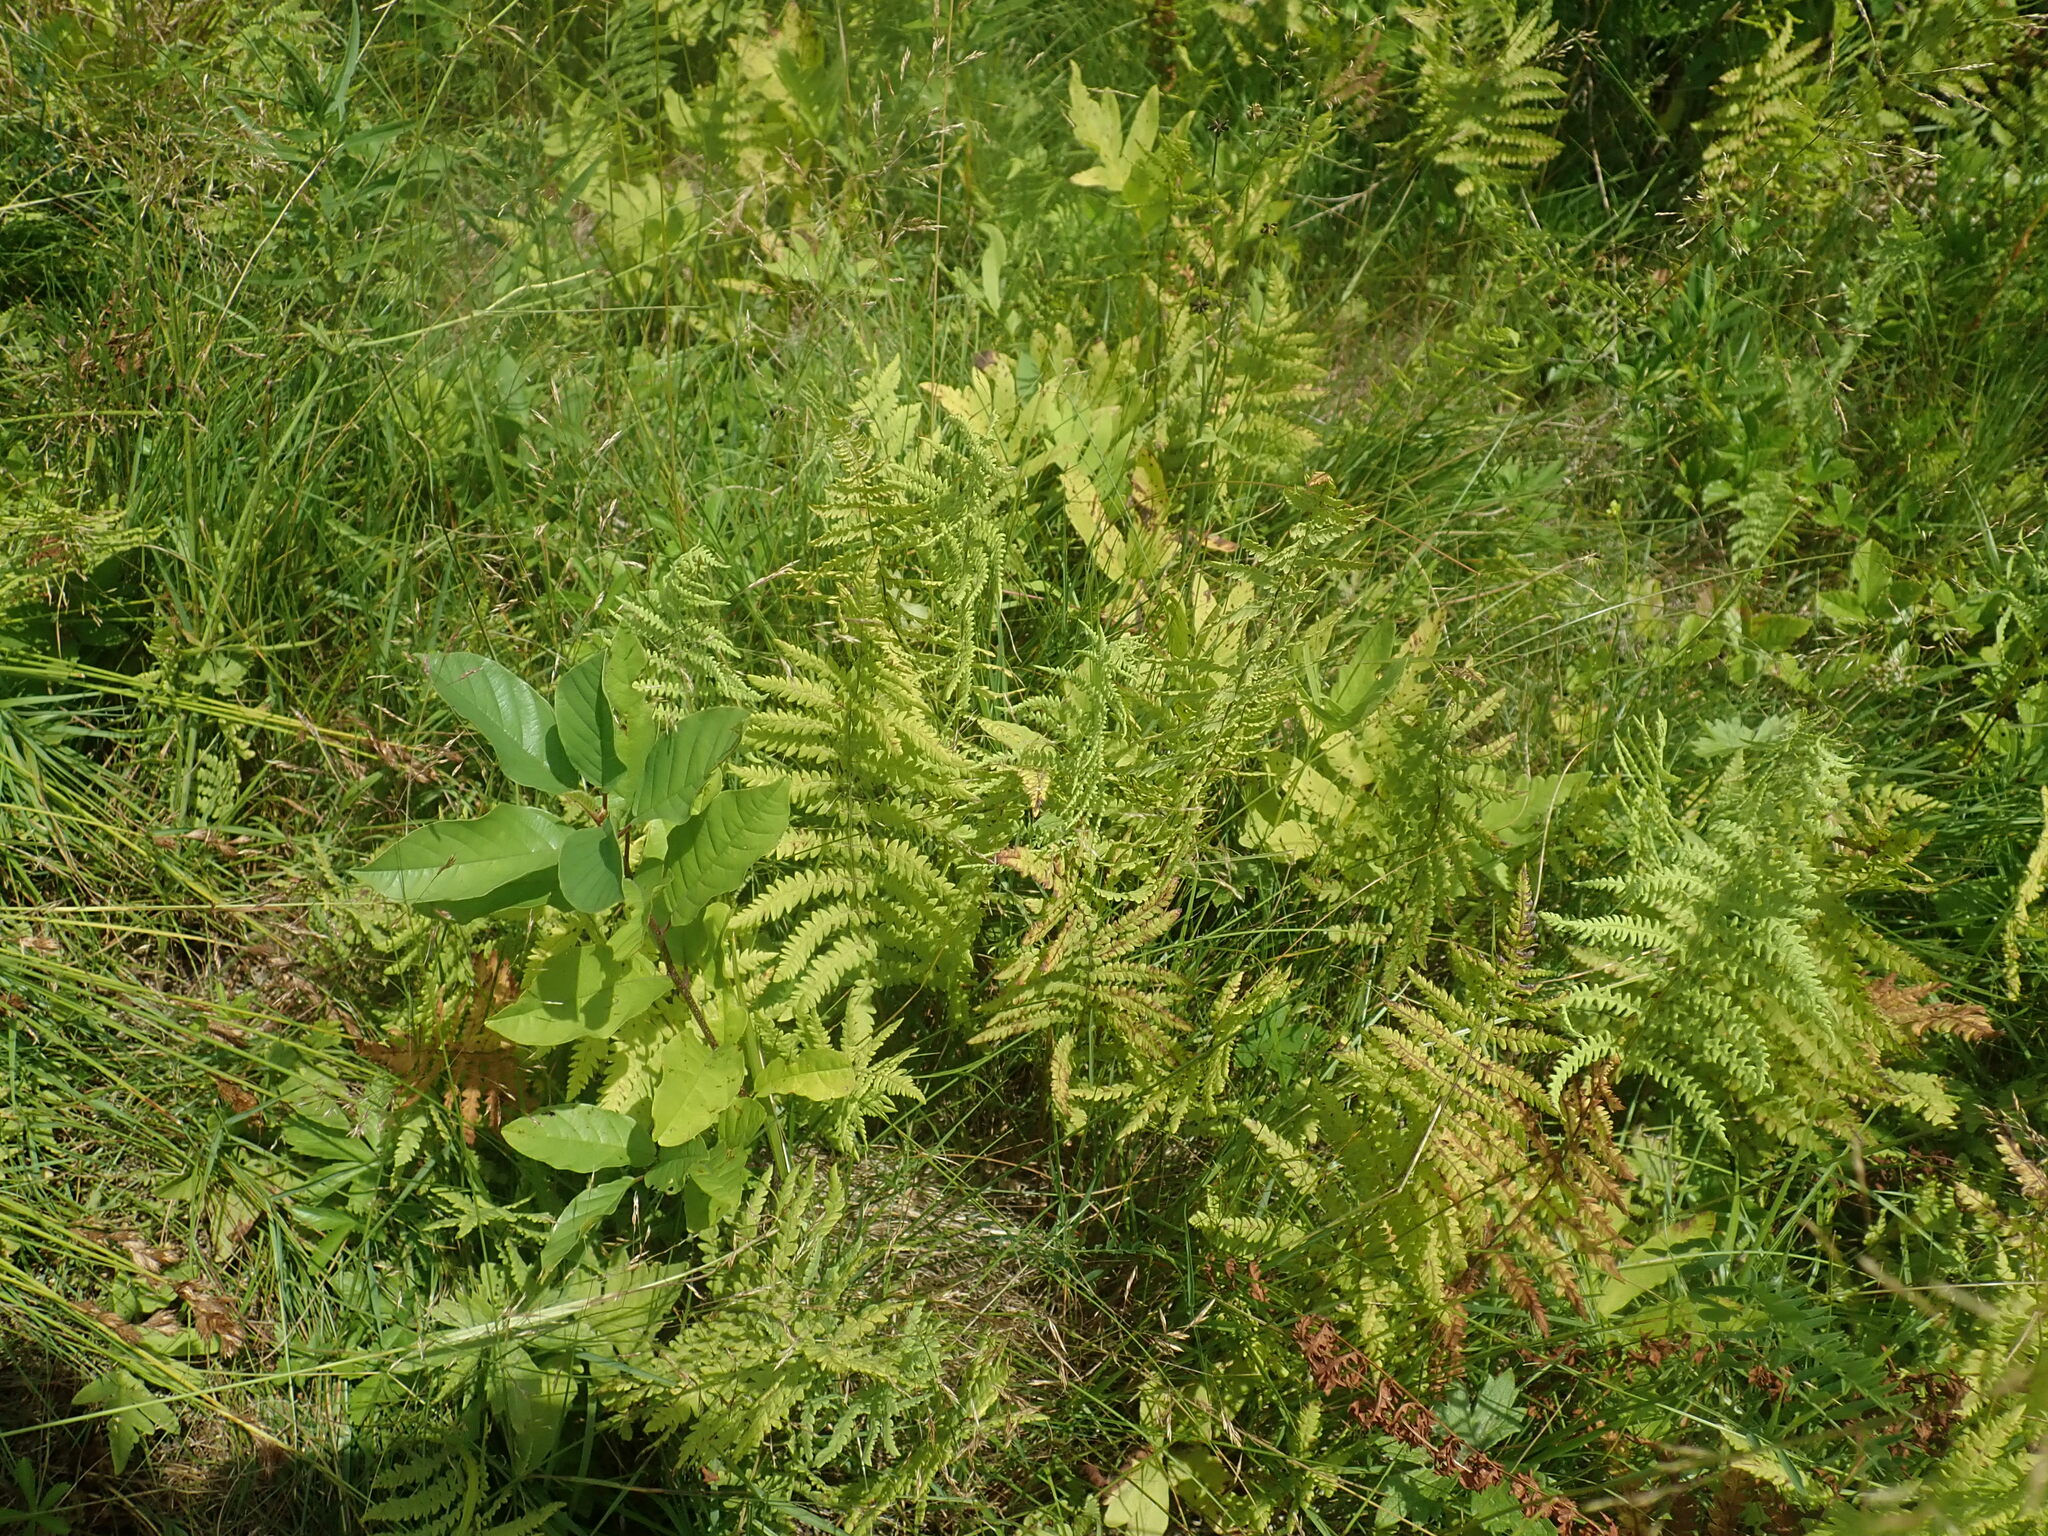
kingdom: Plantae
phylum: Tracheophyta
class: Polypodiopsida
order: Polypodiales
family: Thelypteridaceae
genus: Thelypteris
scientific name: Thelypteris palustris
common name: Marsh fern
